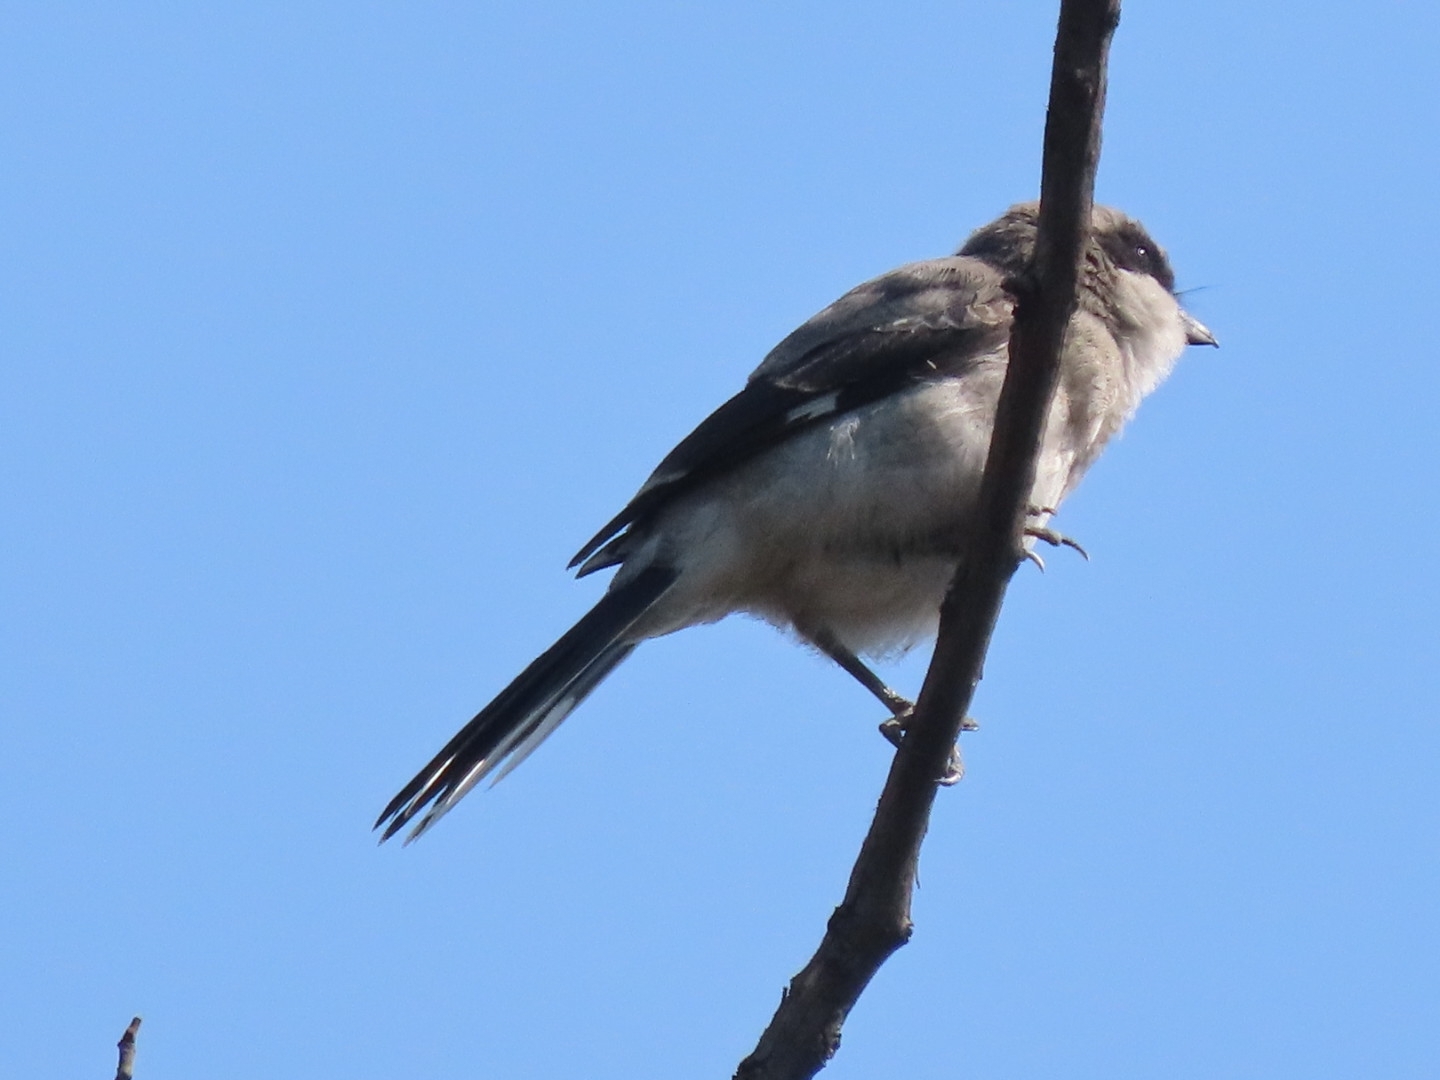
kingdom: Animalia
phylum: Chordata
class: Aves
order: Passeriformes
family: Laniidae
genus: Lanius
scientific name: Lanius ludovicianus
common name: Loggerhead shrike
